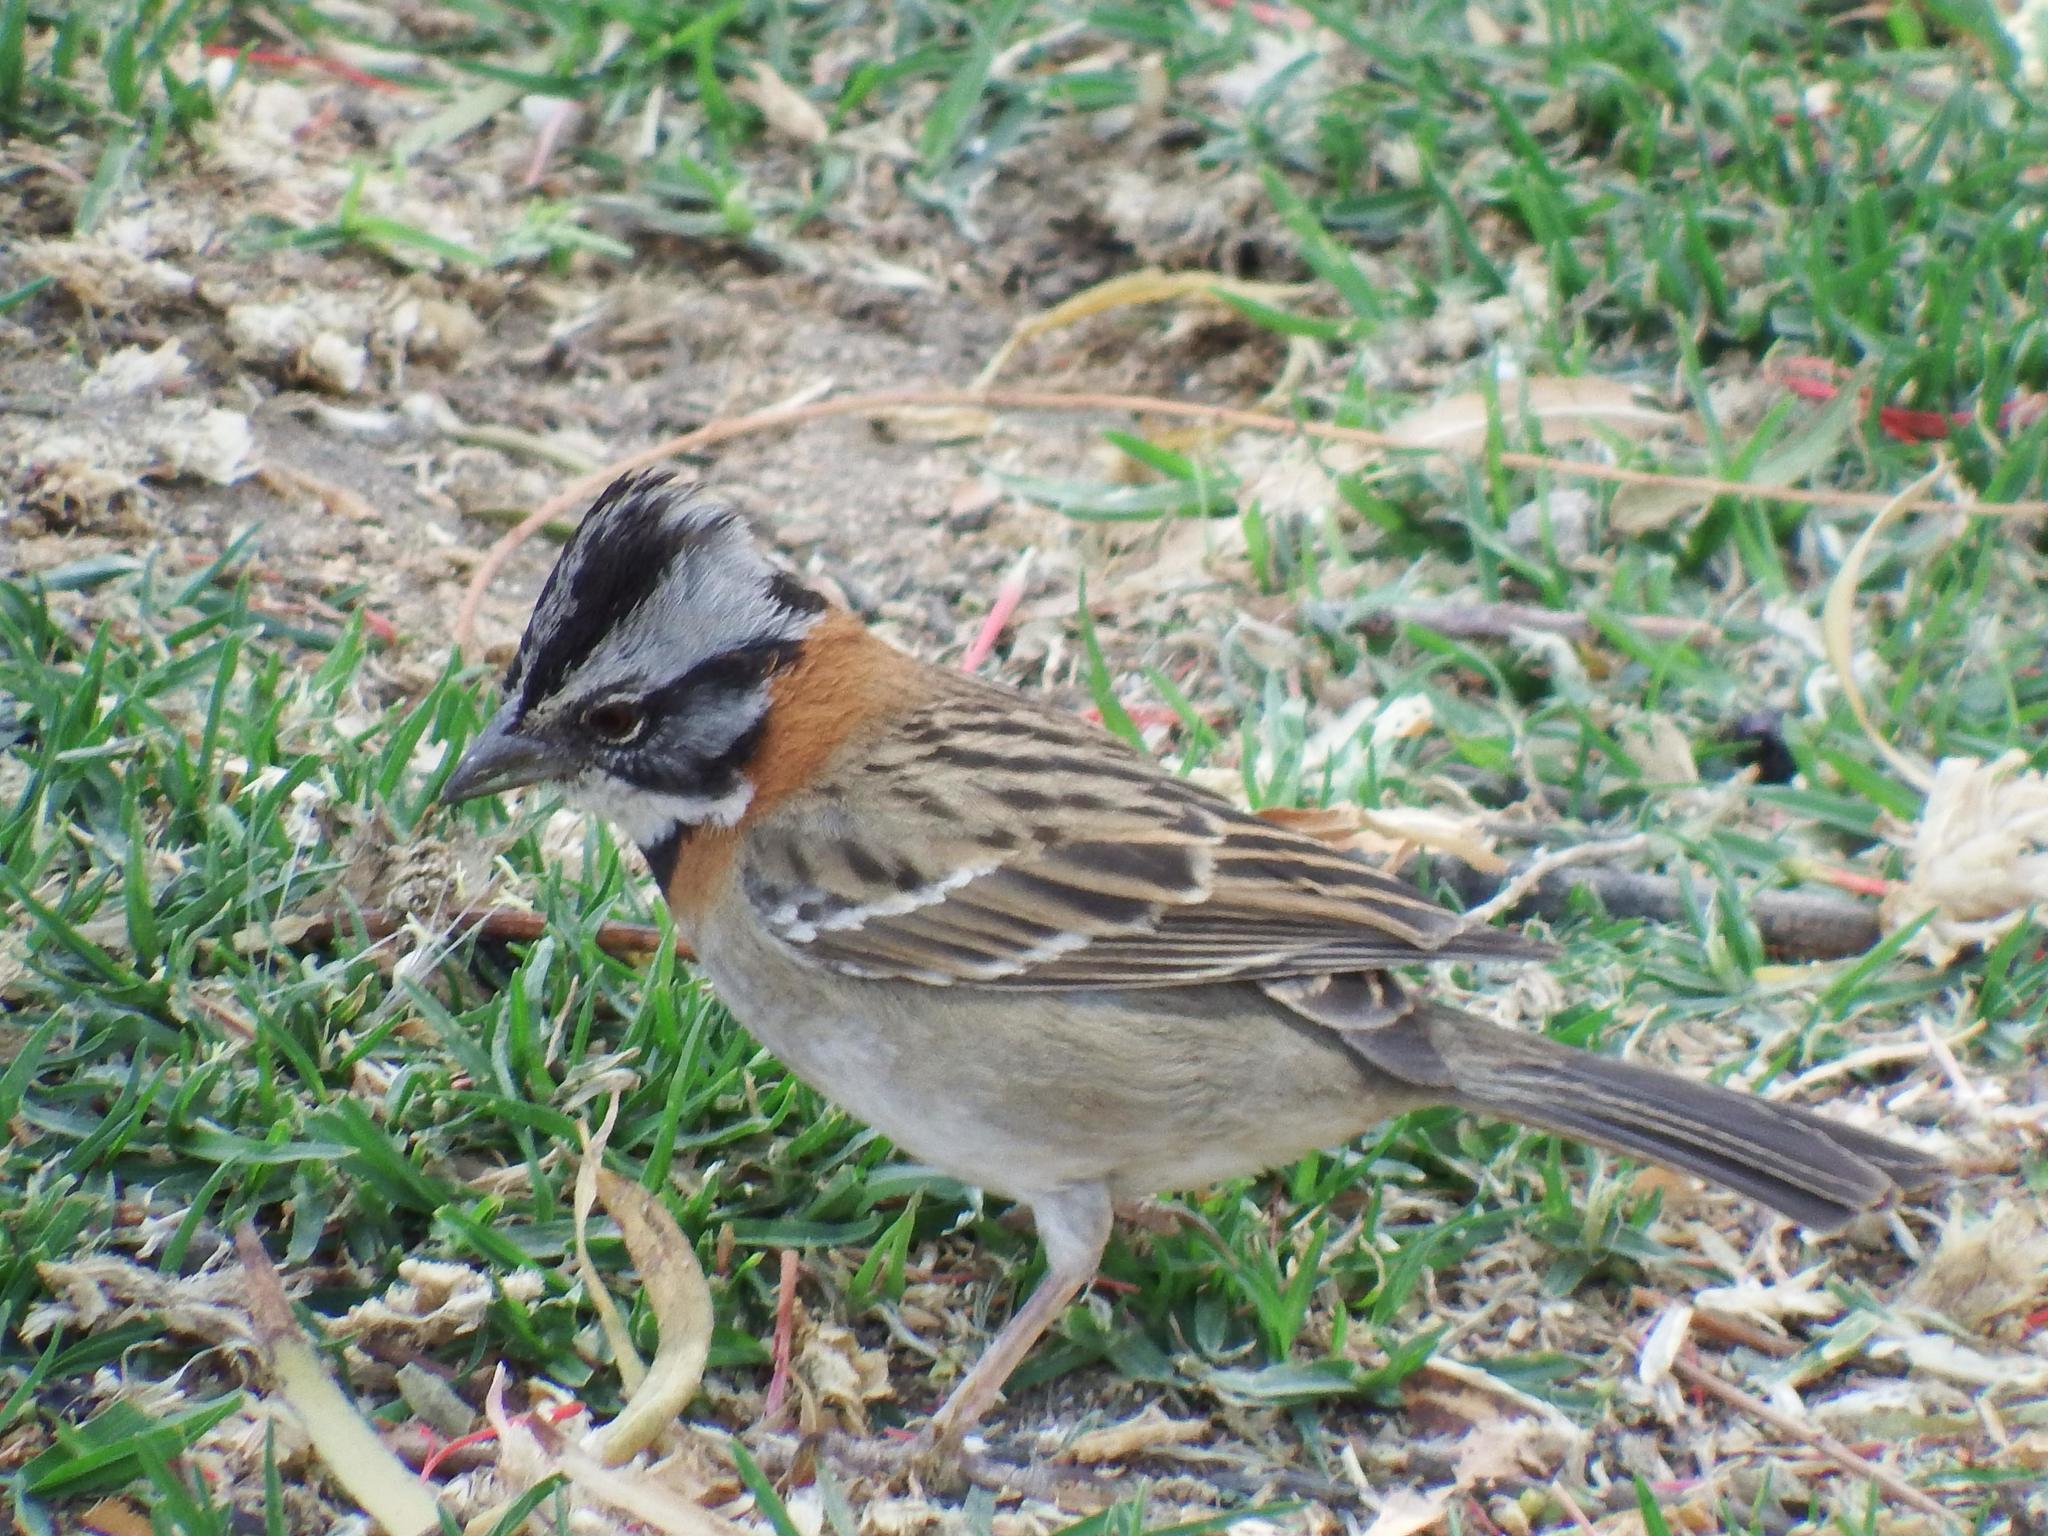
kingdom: Animalia
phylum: Chordata
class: Aves
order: Passeriformes
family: Passerellidae
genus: Zonotrichia
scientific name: Zonotrichia capensis
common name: Rufous-collared sparrow
